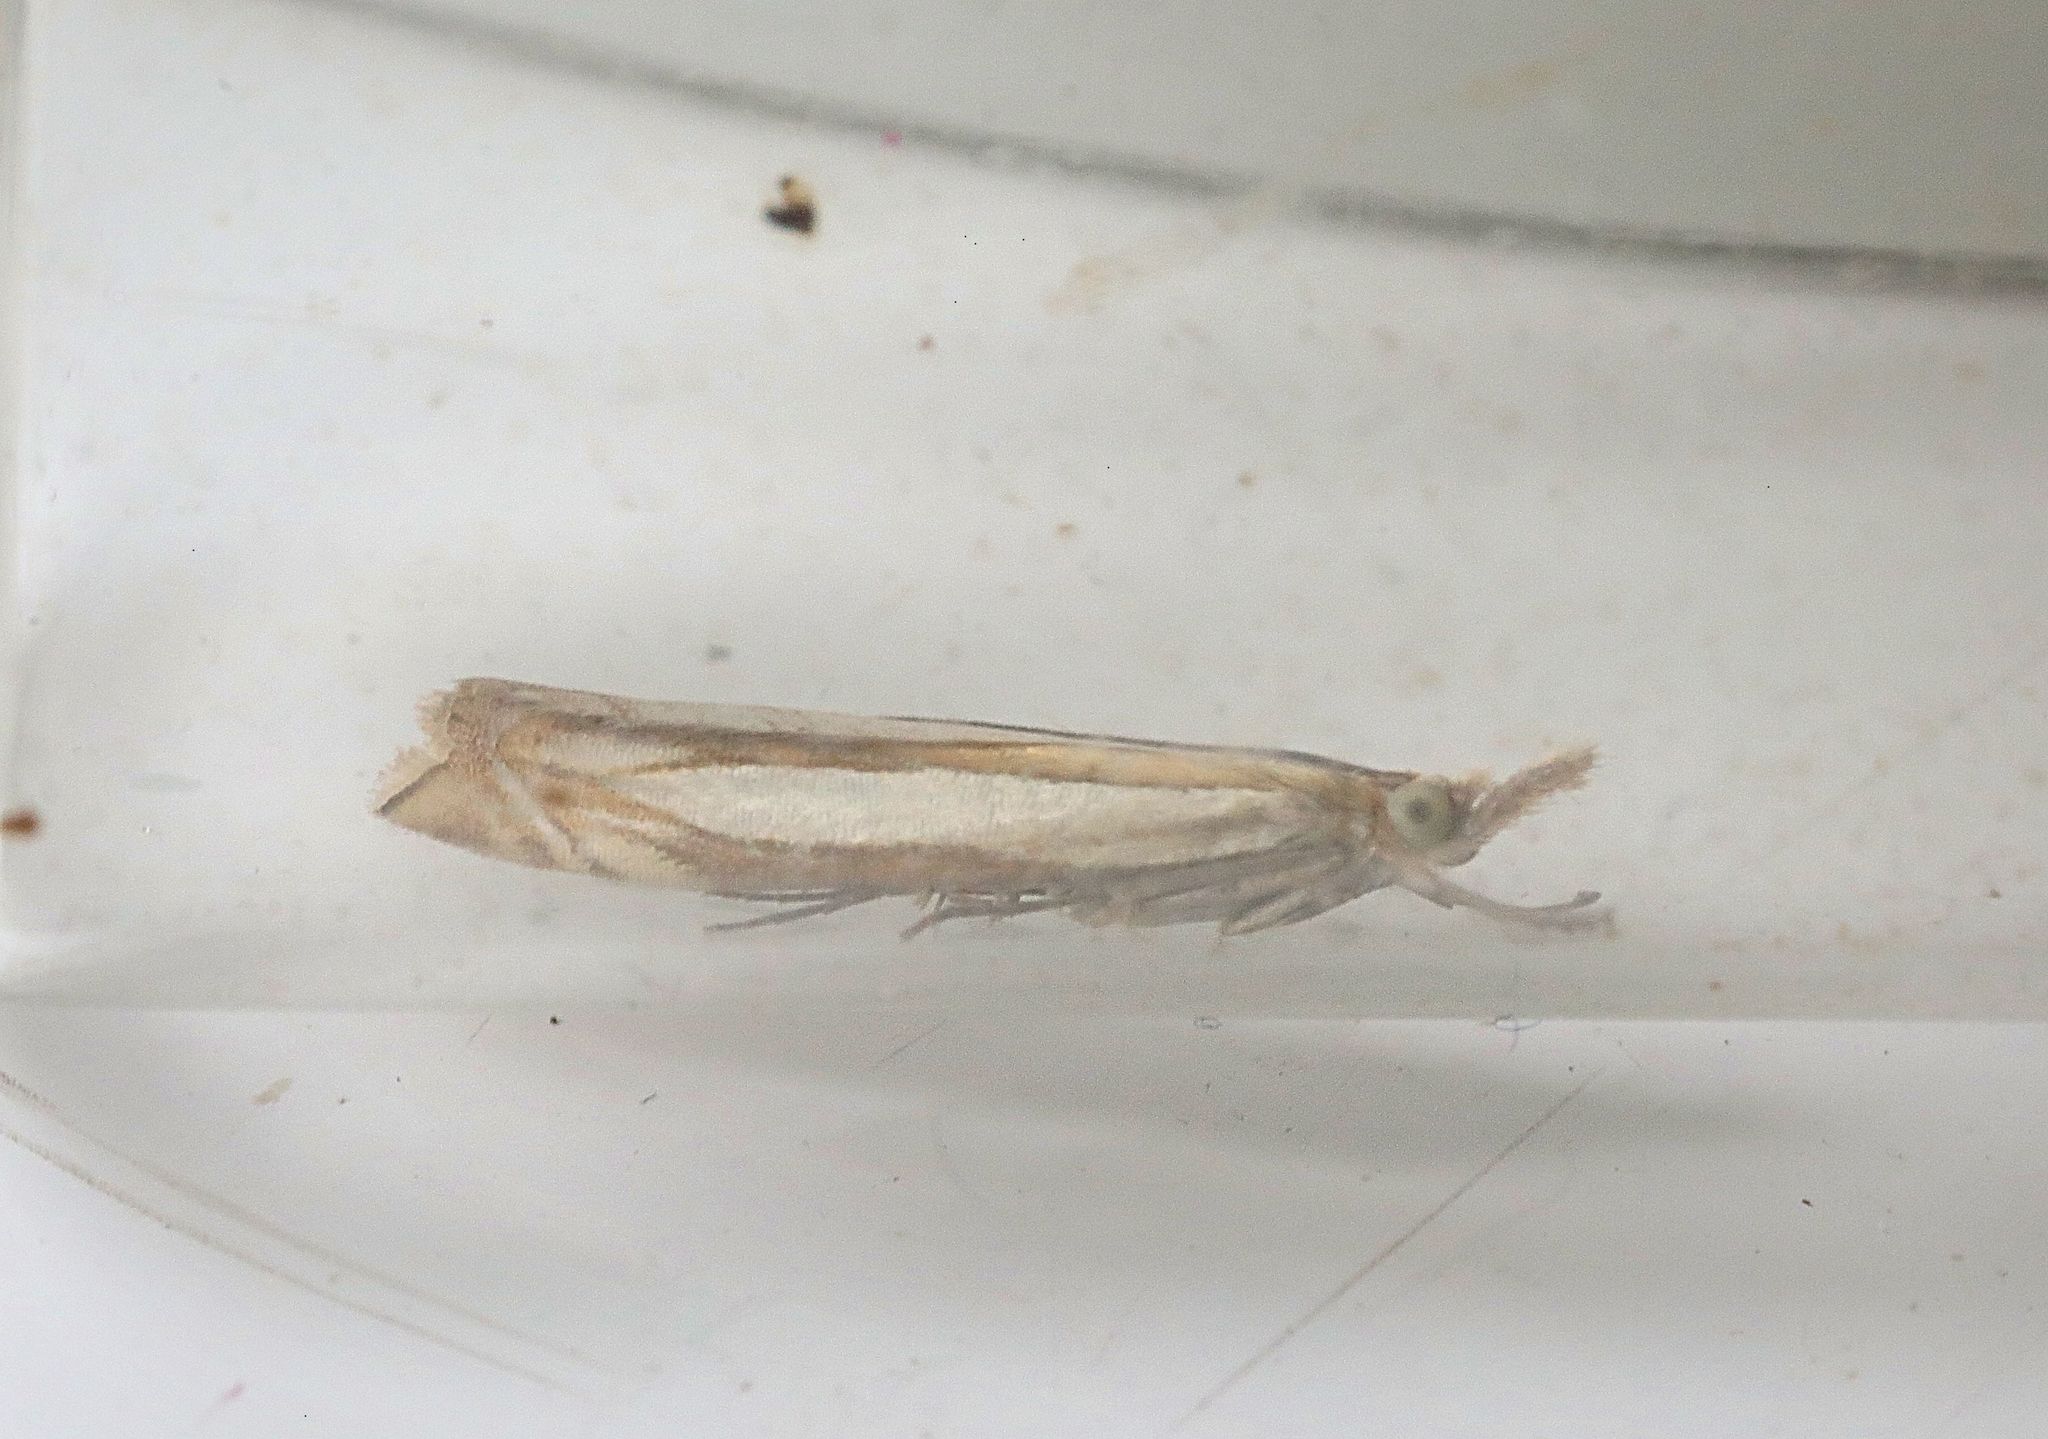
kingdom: Animalia
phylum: Arthropoda
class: Insecta
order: Lepidoptera
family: Crambidae
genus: Crambus
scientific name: Crambus pascuella
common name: Inlaid grass-veneer
